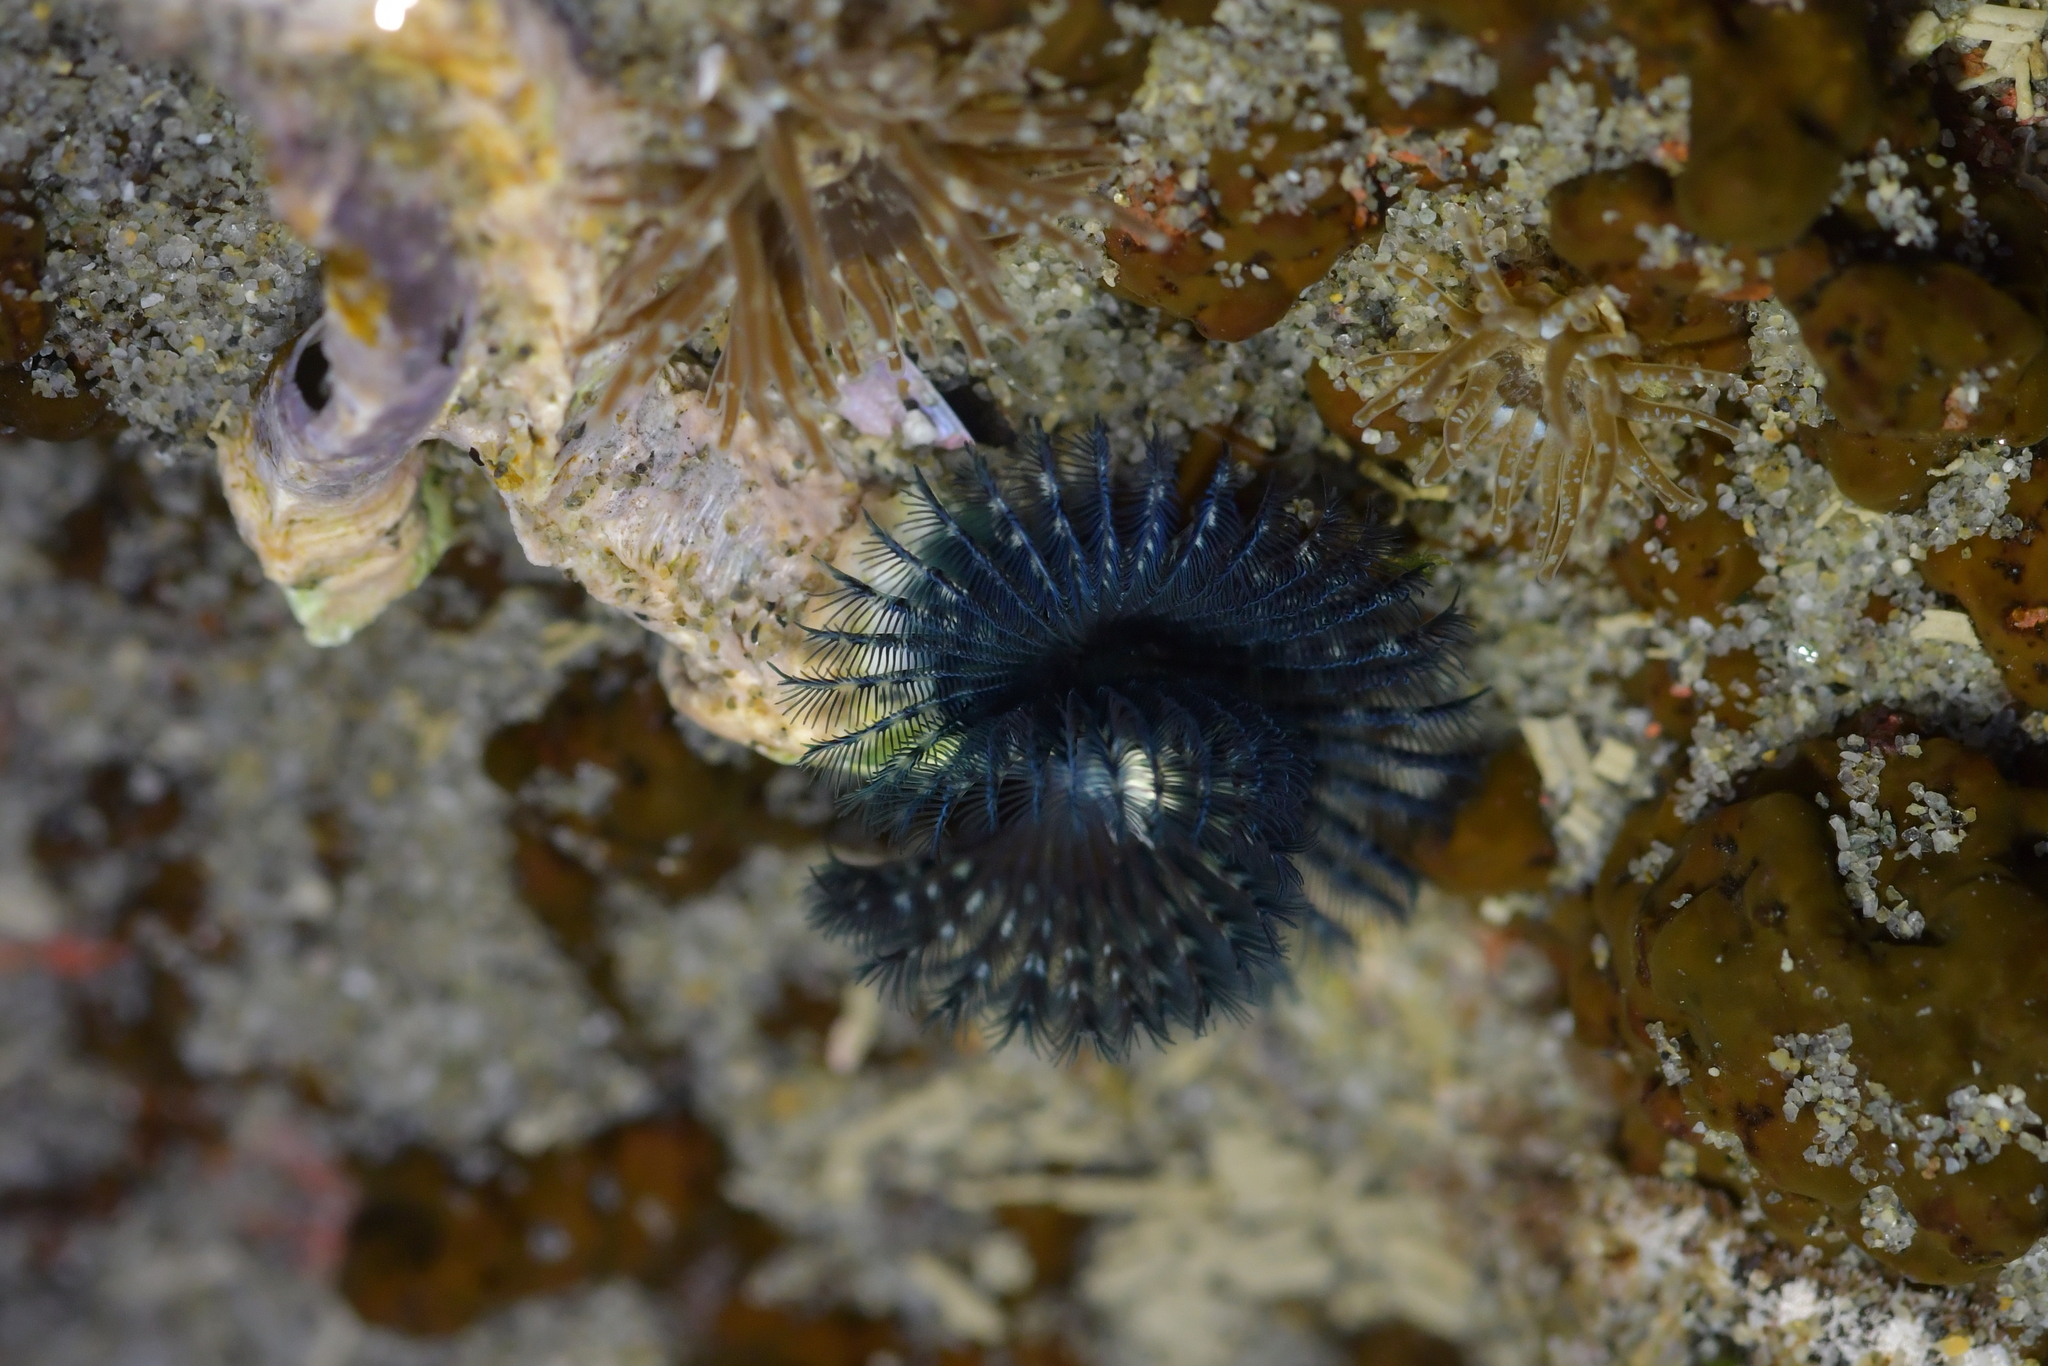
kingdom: Animalia
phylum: Annelida
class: Polychaeta
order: Sabellida
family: Serpulidae
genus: Spirobranchus
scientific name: Spirobranchus cariniferus
